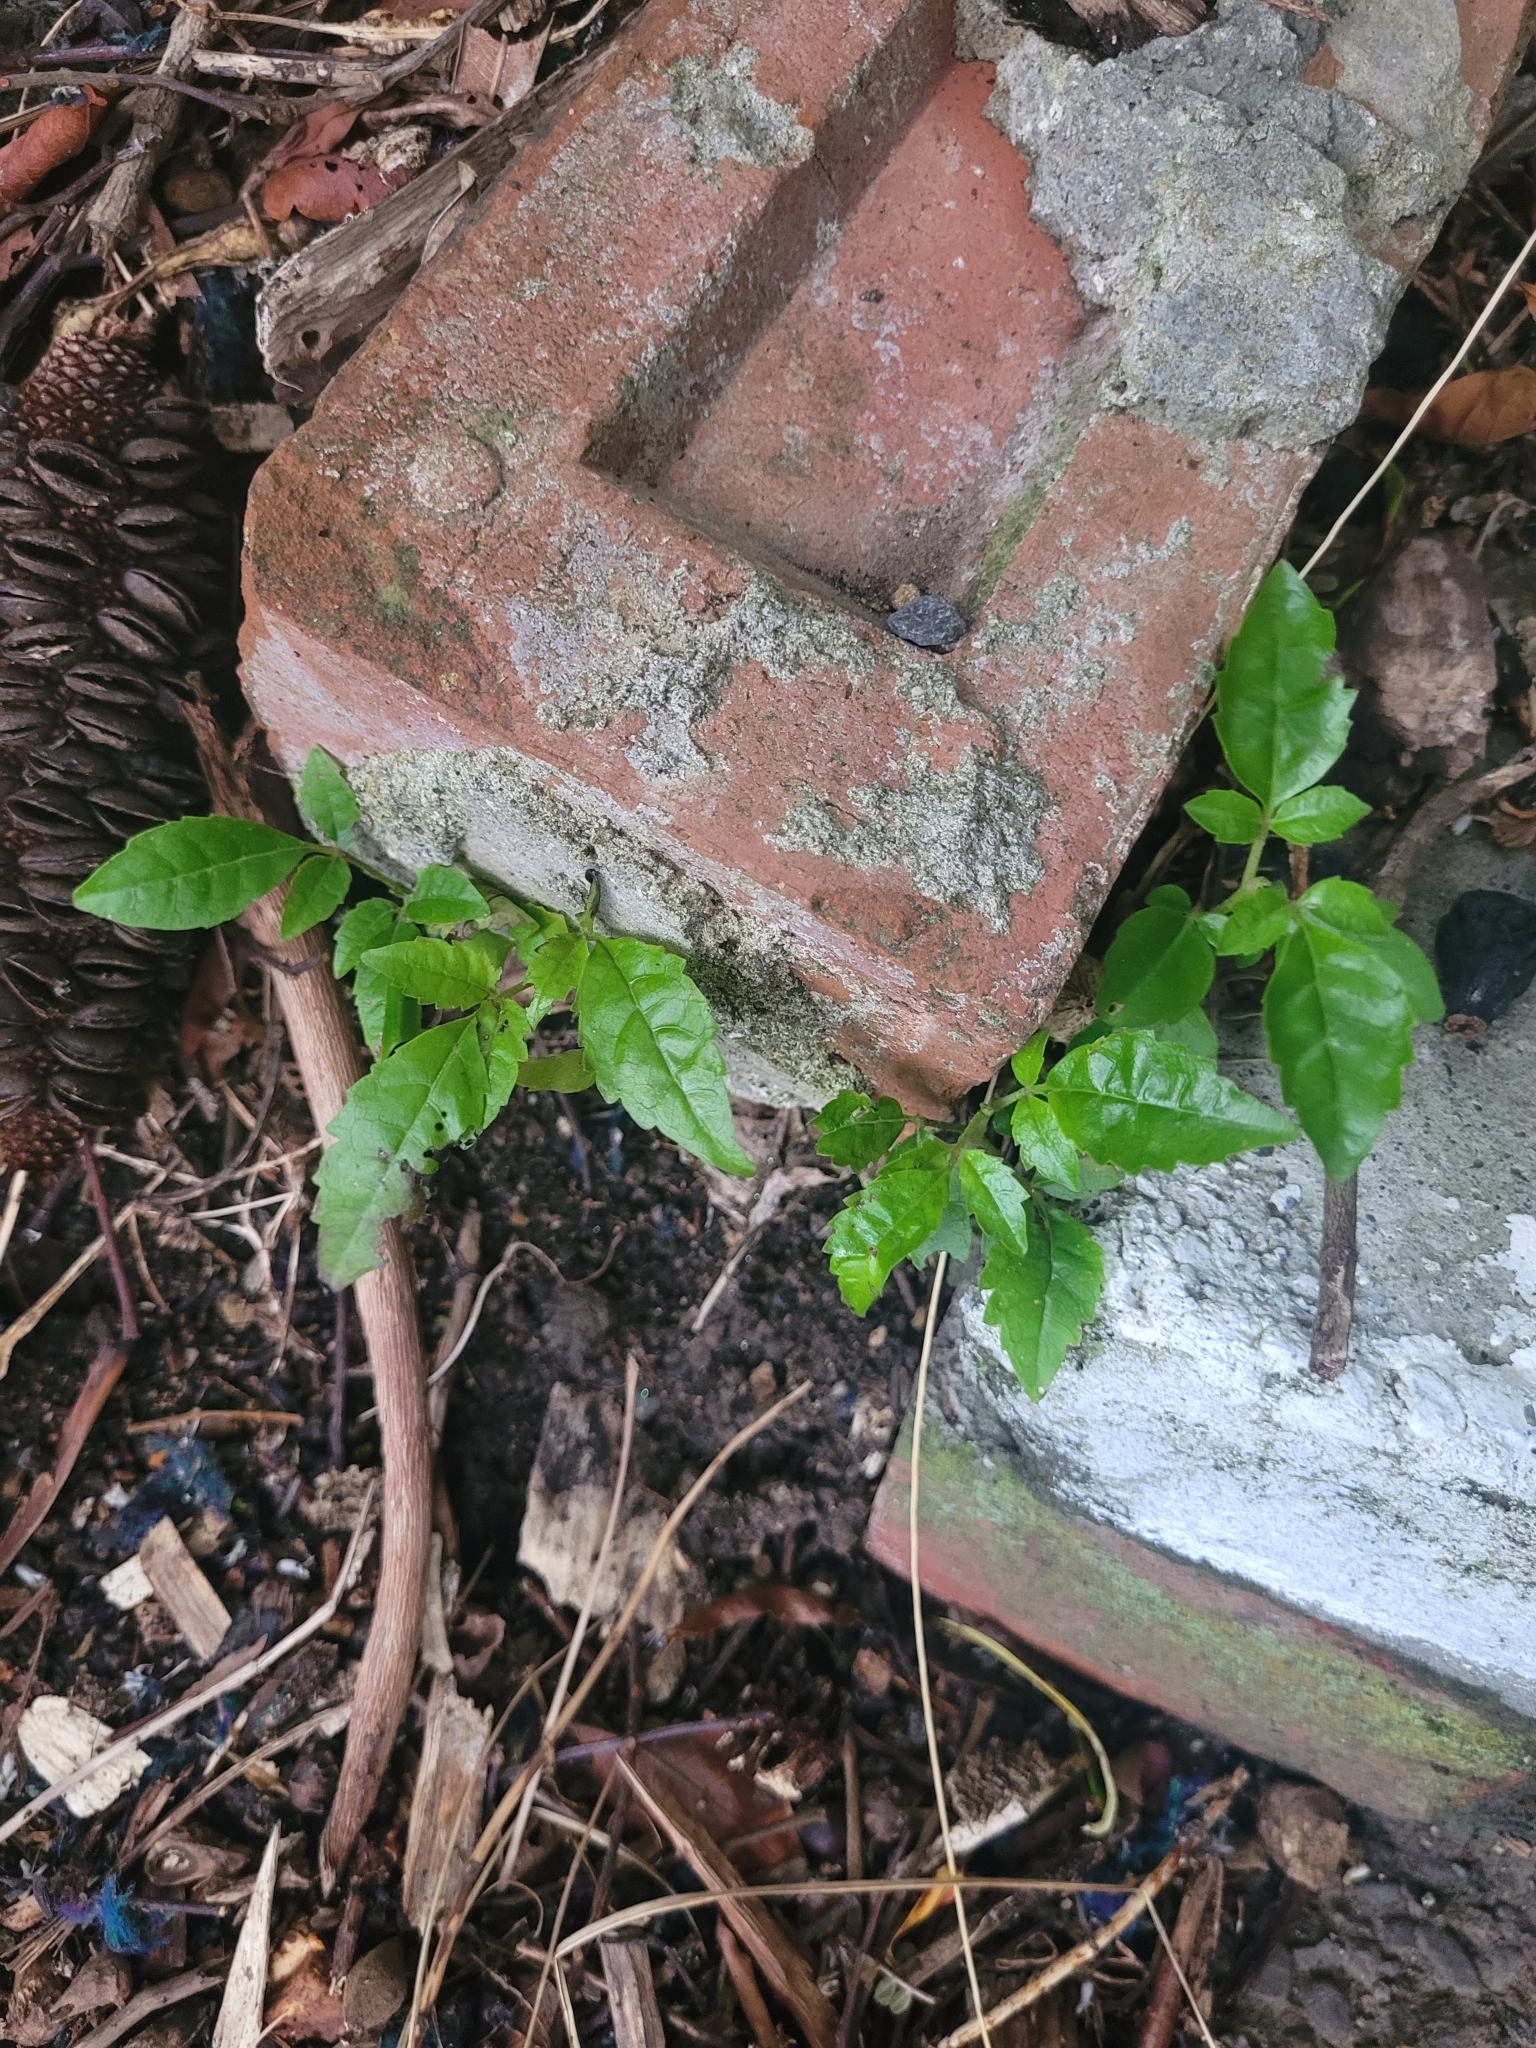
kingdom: Plantae
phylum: Tracheophyta
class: Magnoliopsida
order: Lamiales
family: Lamiaceae
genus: Vitex
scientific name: Vitex lucens
